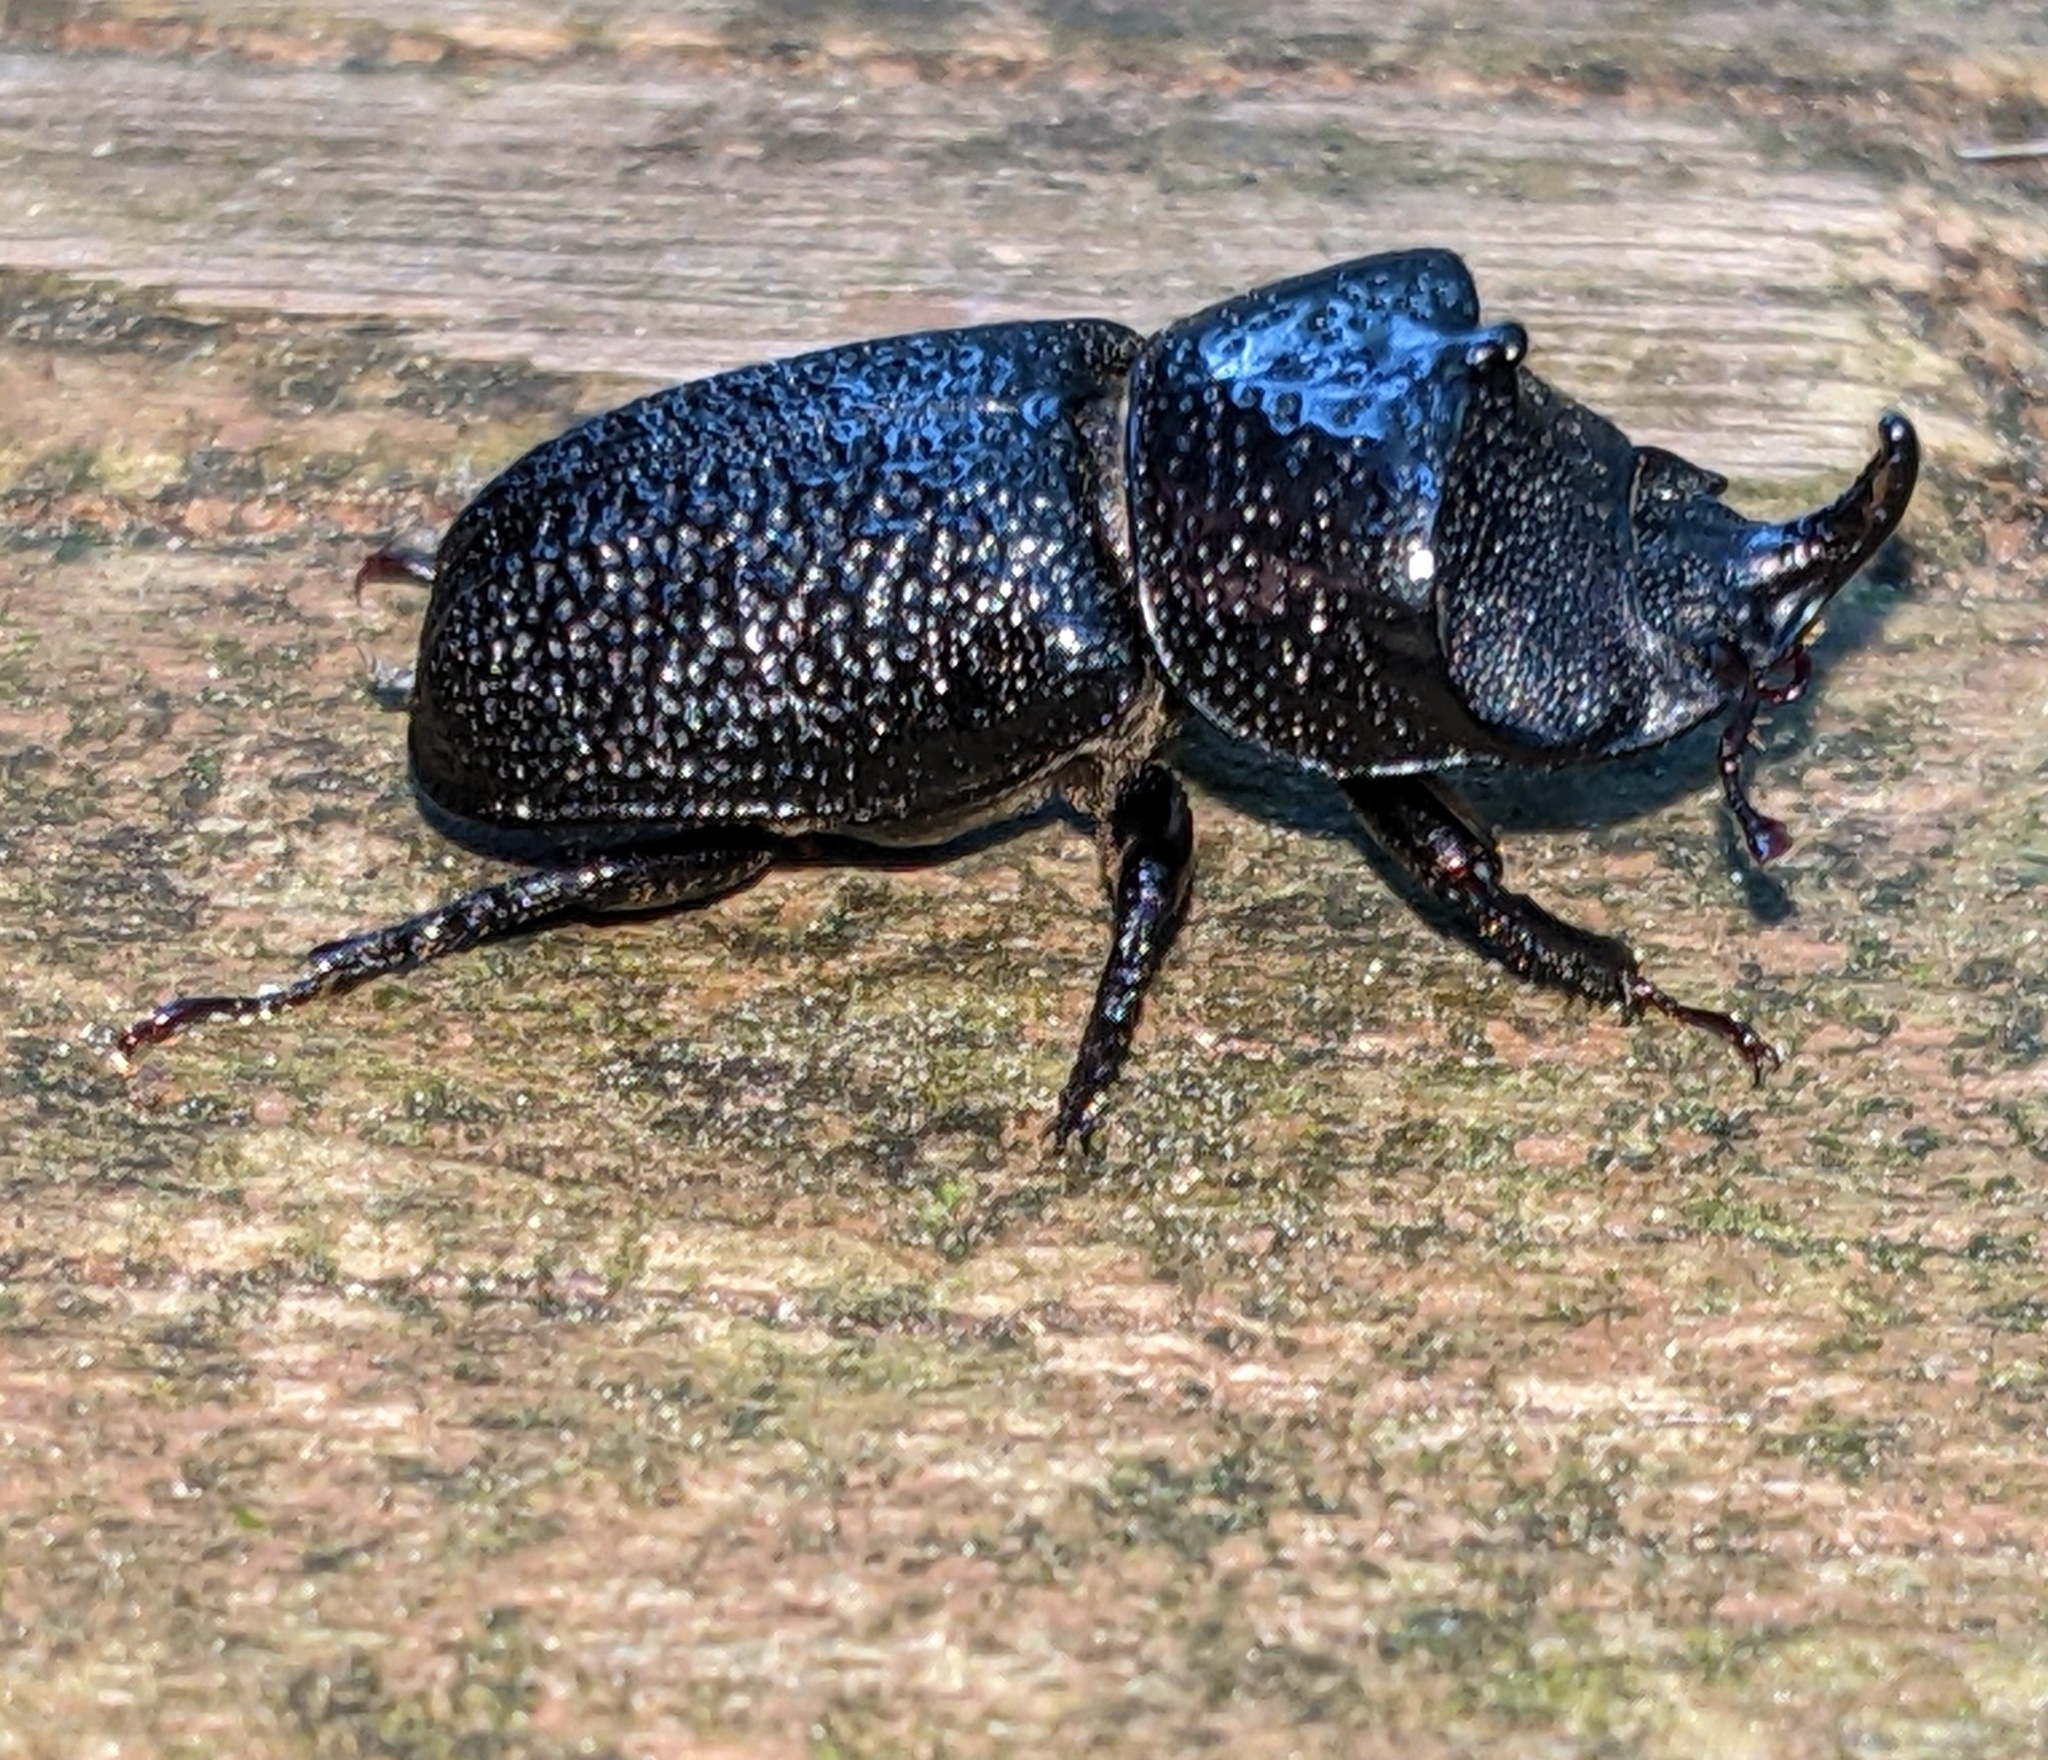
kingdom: Animalia
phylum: Arthropoda
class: Insecta
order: Coleoptera
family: Lucanidae
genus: Sinodendron
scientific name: Sinodendron rugosum
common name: Rugose stag beelte
